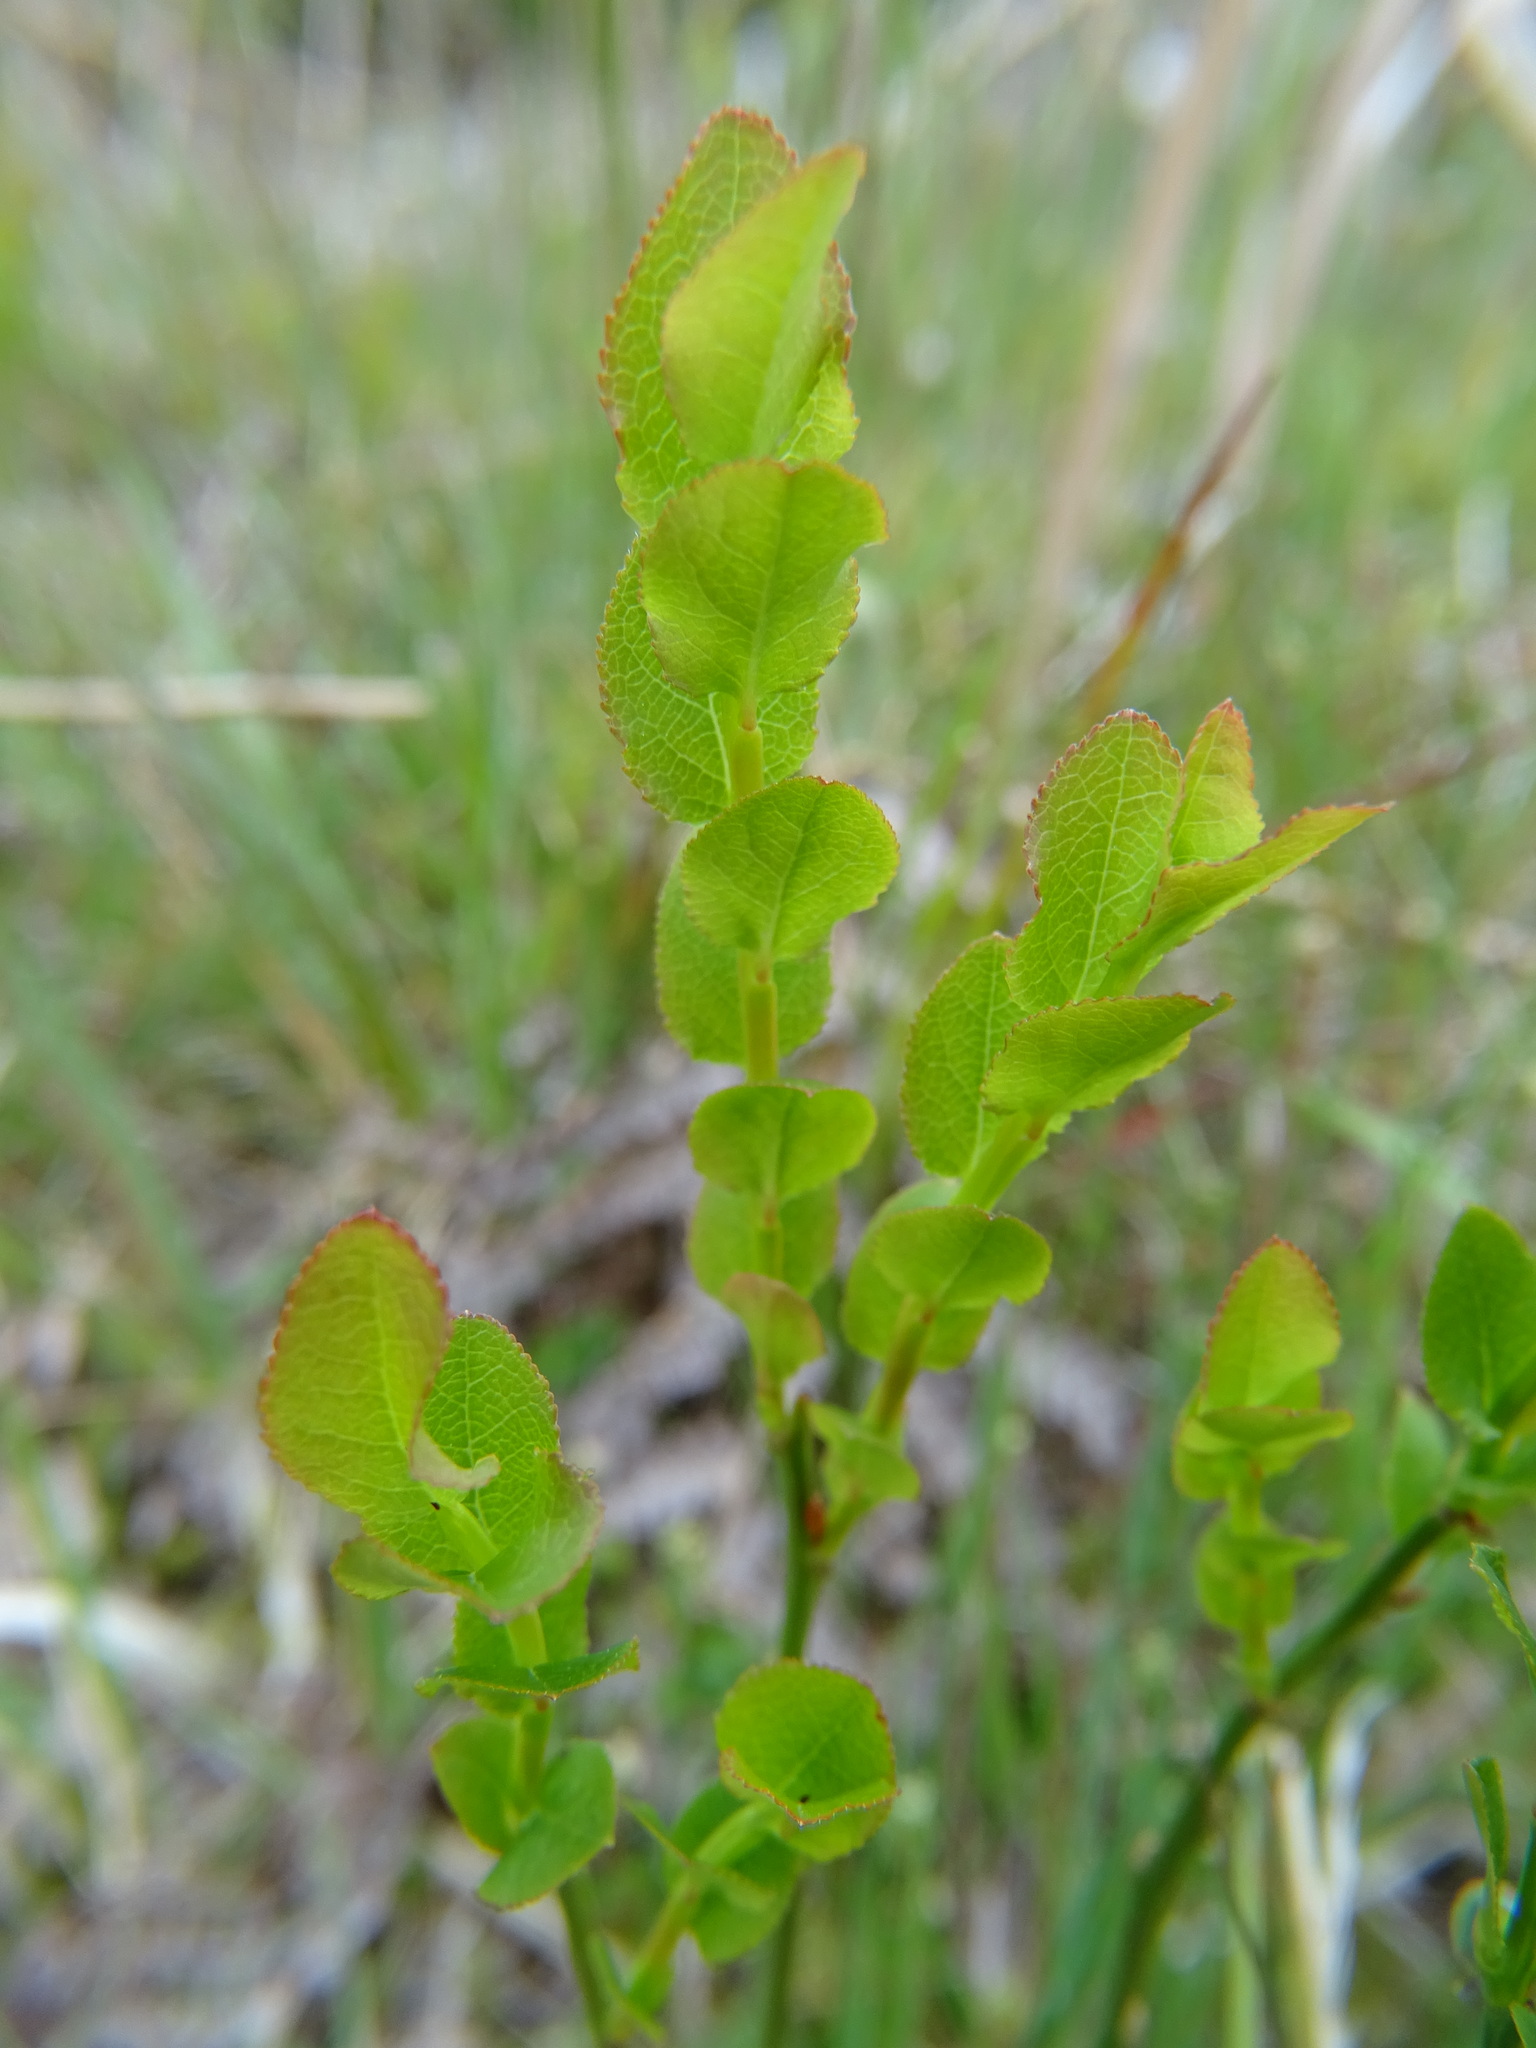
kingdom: Plantae
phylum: Tracheophyta
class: Magnoliopsida
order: Ericales
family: Ericaceae
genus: Vaccinium
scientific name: Vaccinium myrtillus
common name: Bilberry
